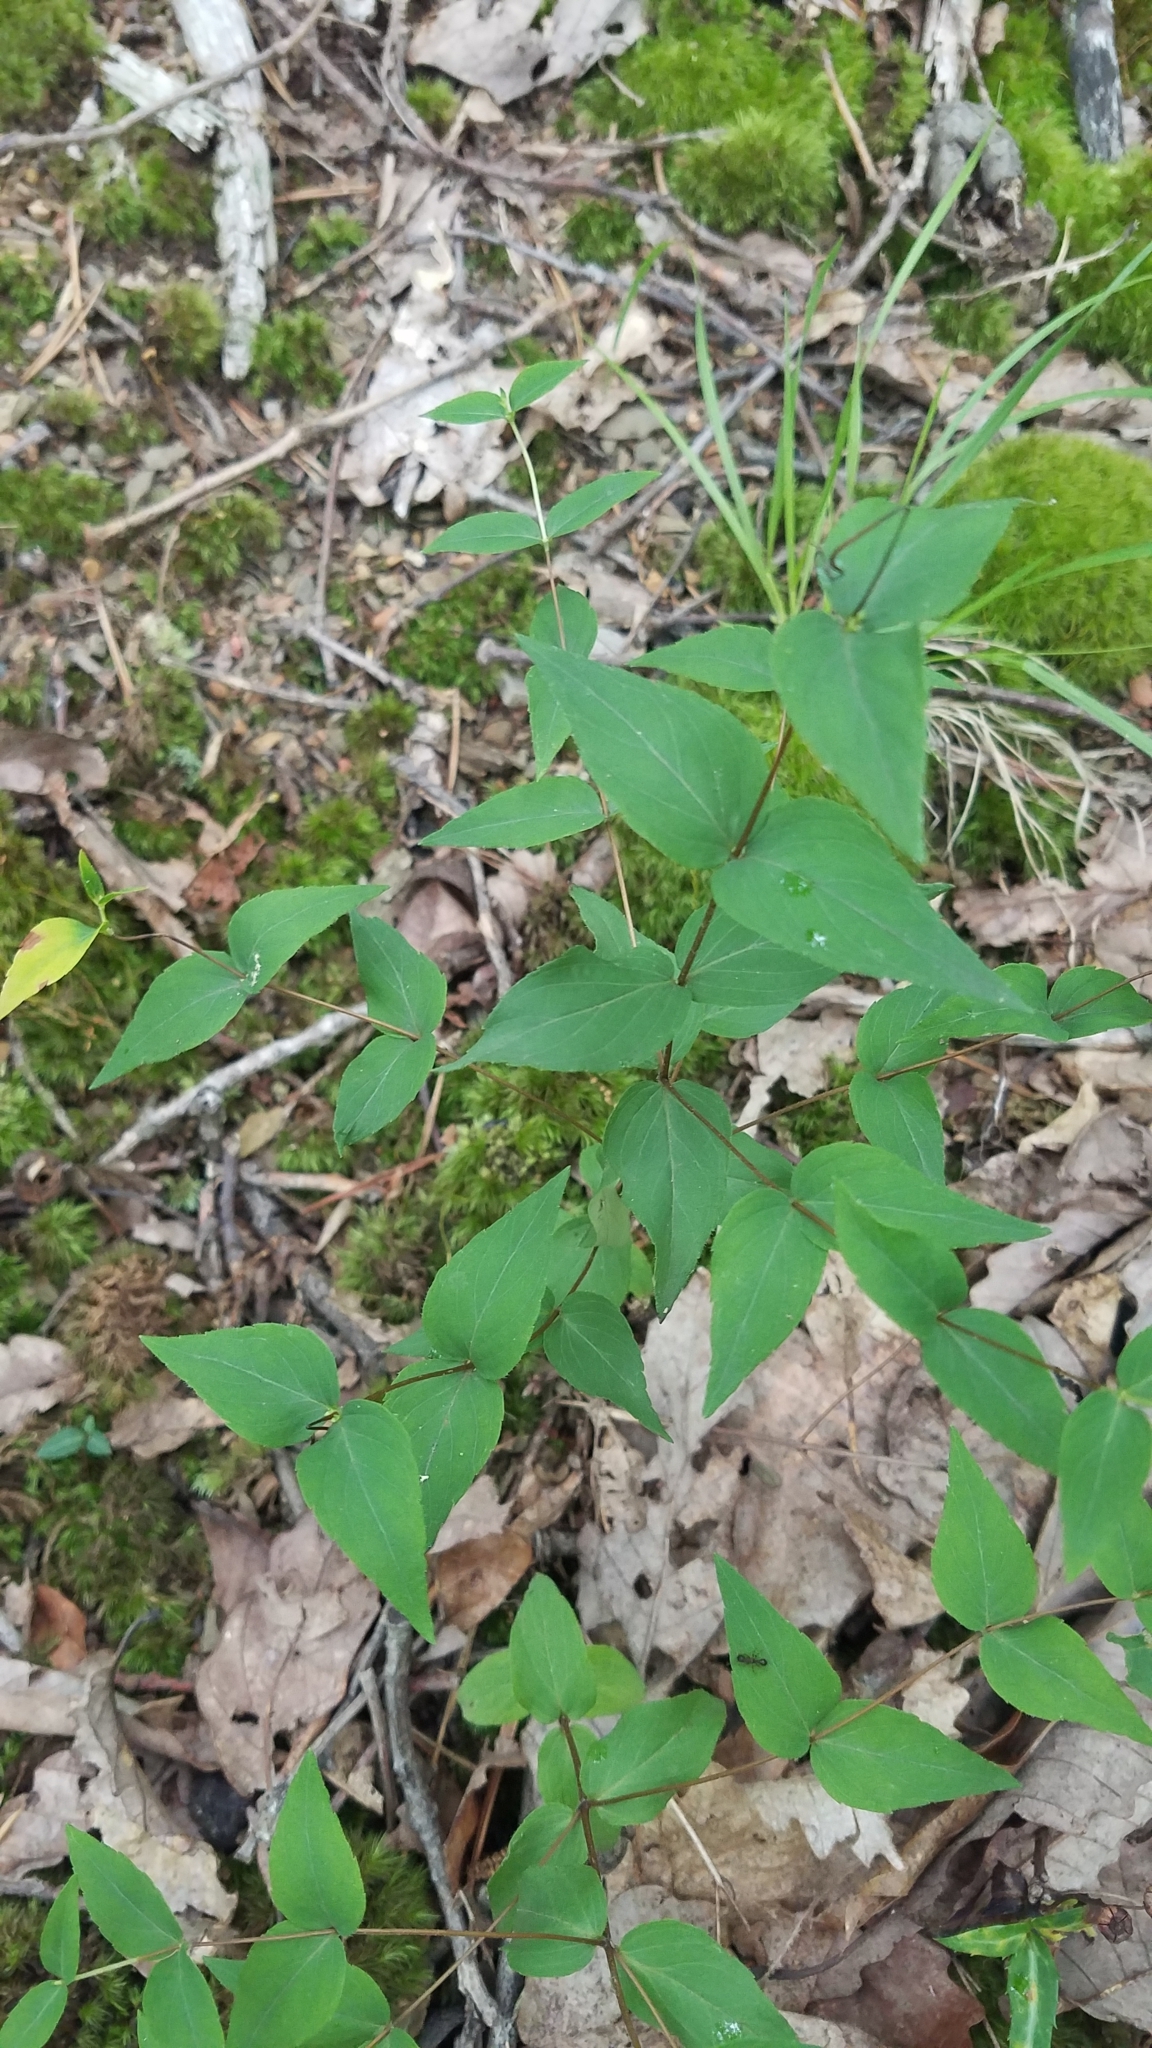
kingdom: Plantae
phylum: Tracheophyta
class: Magnoliopsida
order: Lamiales
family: Lamiaceae
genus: Cunila
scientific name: Cunila origanoides
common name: American dittany
